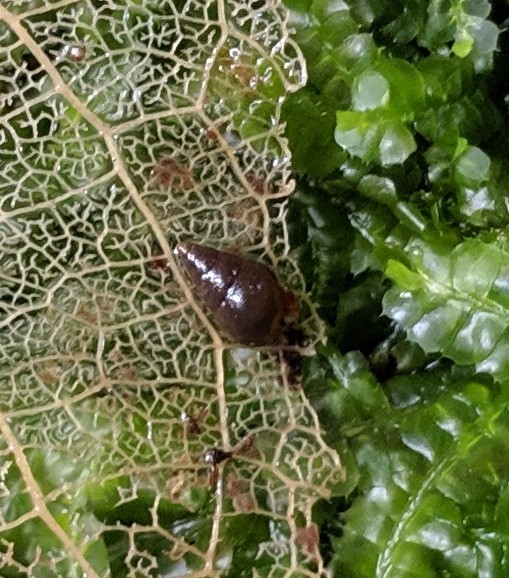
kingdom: Animalia
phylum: Mollusca
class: Gastropoda
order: Littorinimorpha
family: Tateidae
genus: Potamopyrgus
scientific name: Potamopyrgus antipodarum
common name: Jenkins' spire snail
